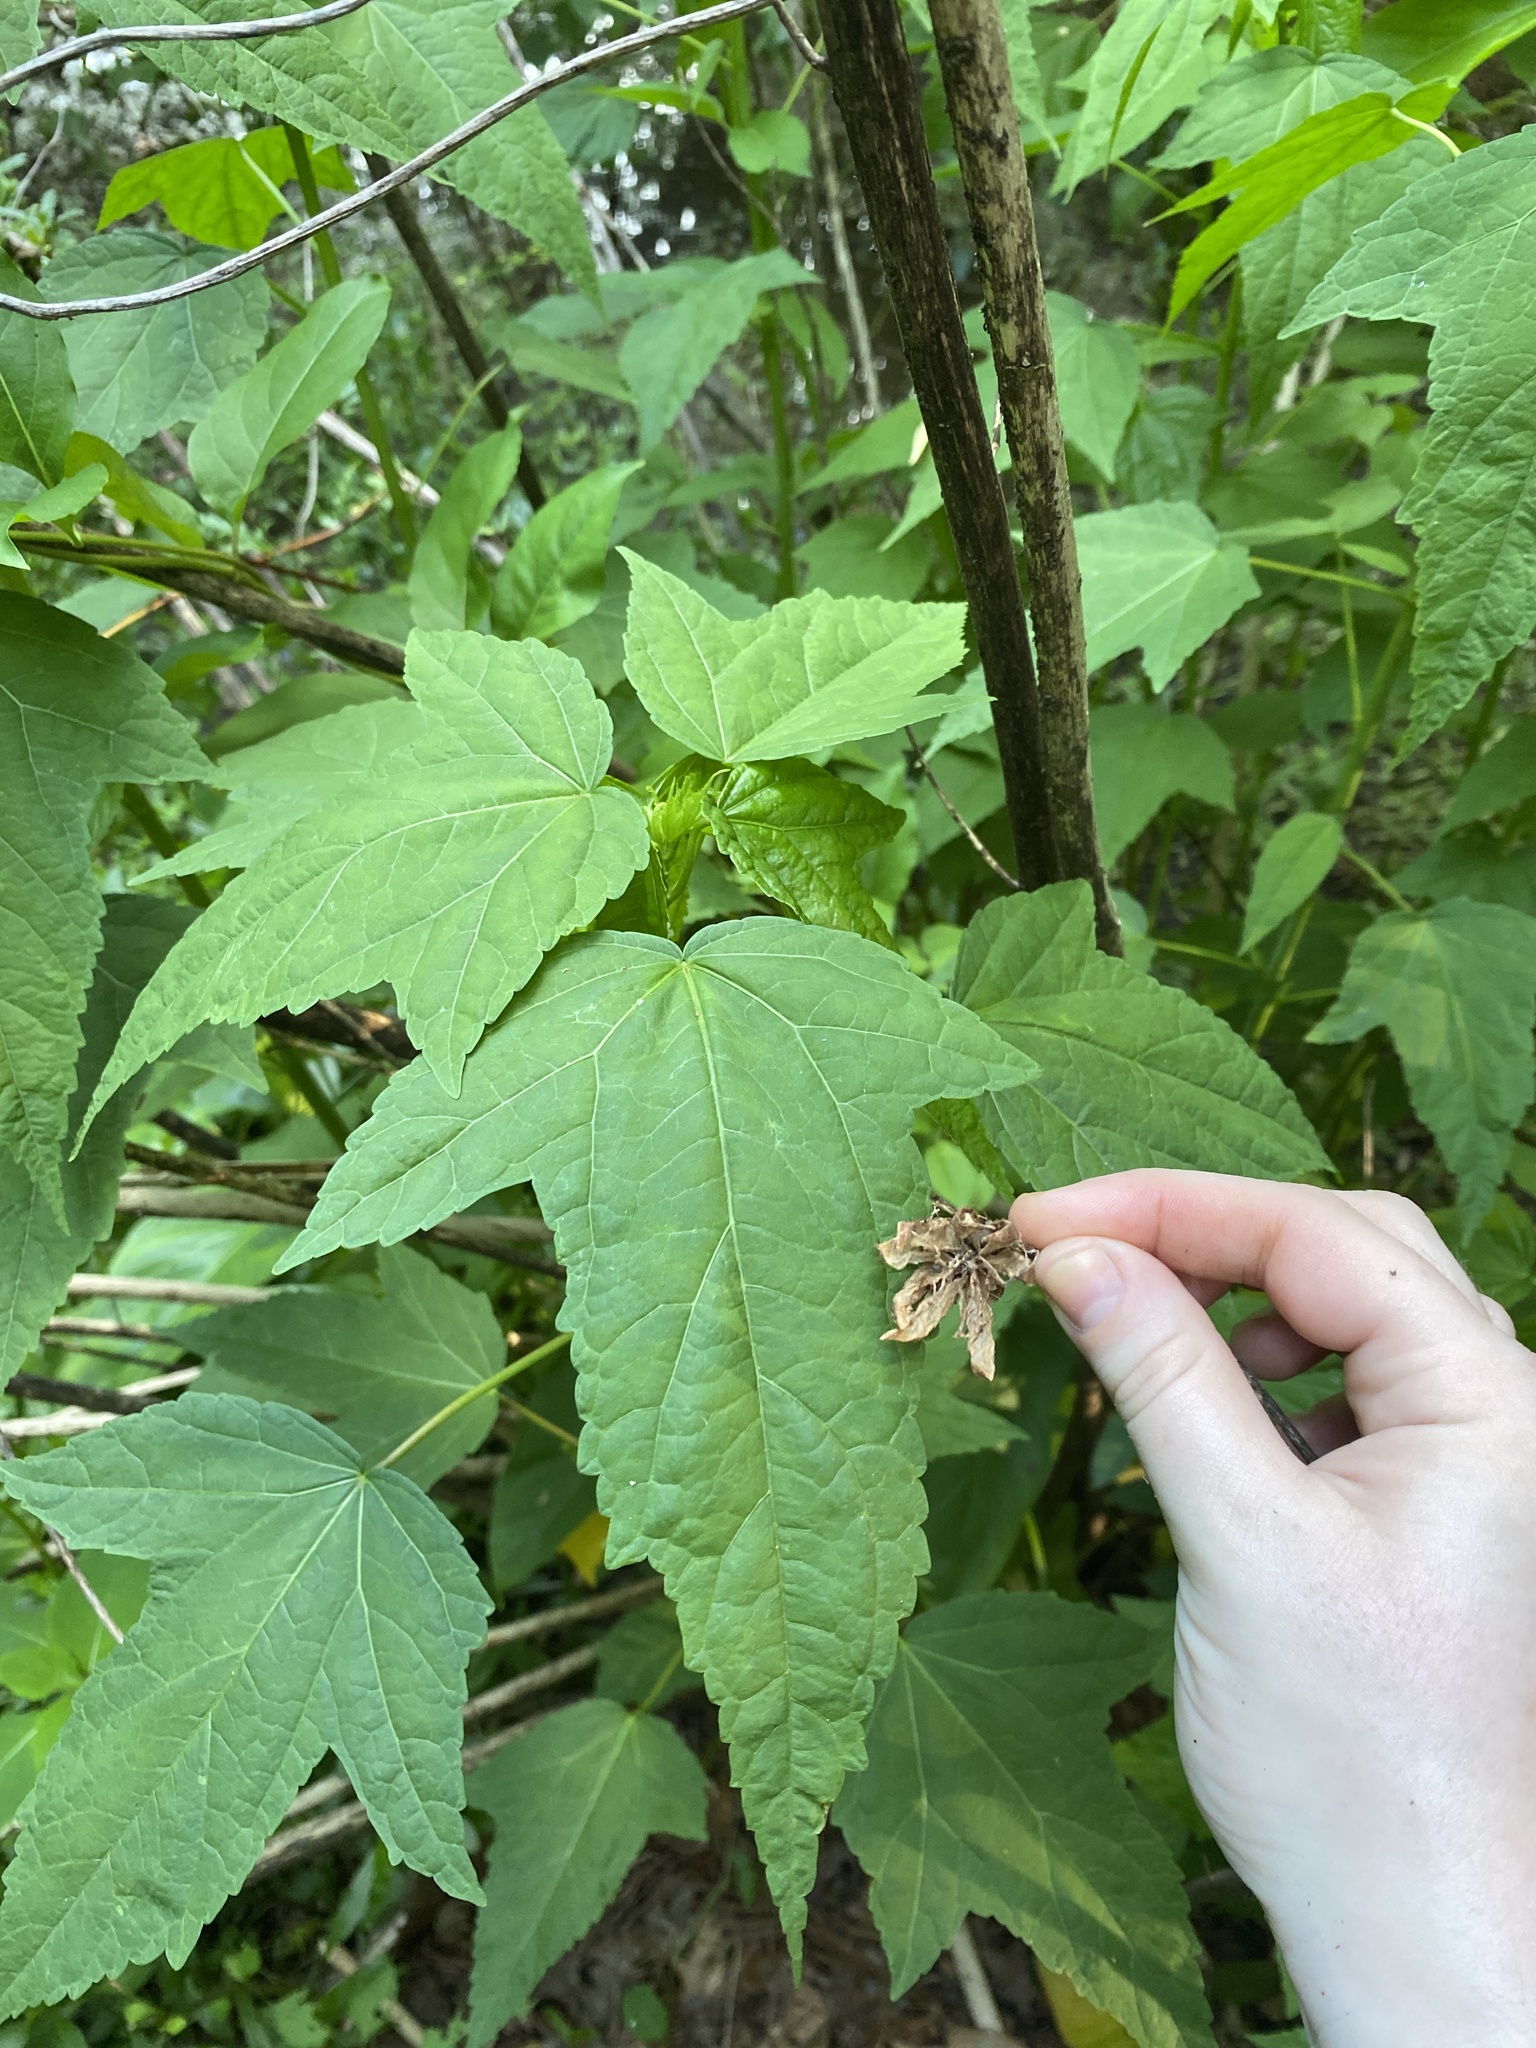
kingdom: Plantae
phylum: Tracheophyta
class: Magnoliopsida
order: Malvales
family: Malvaceae
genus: Hibiscus
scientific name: Hibiscus laevis
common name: Scarlet rose-mallow
